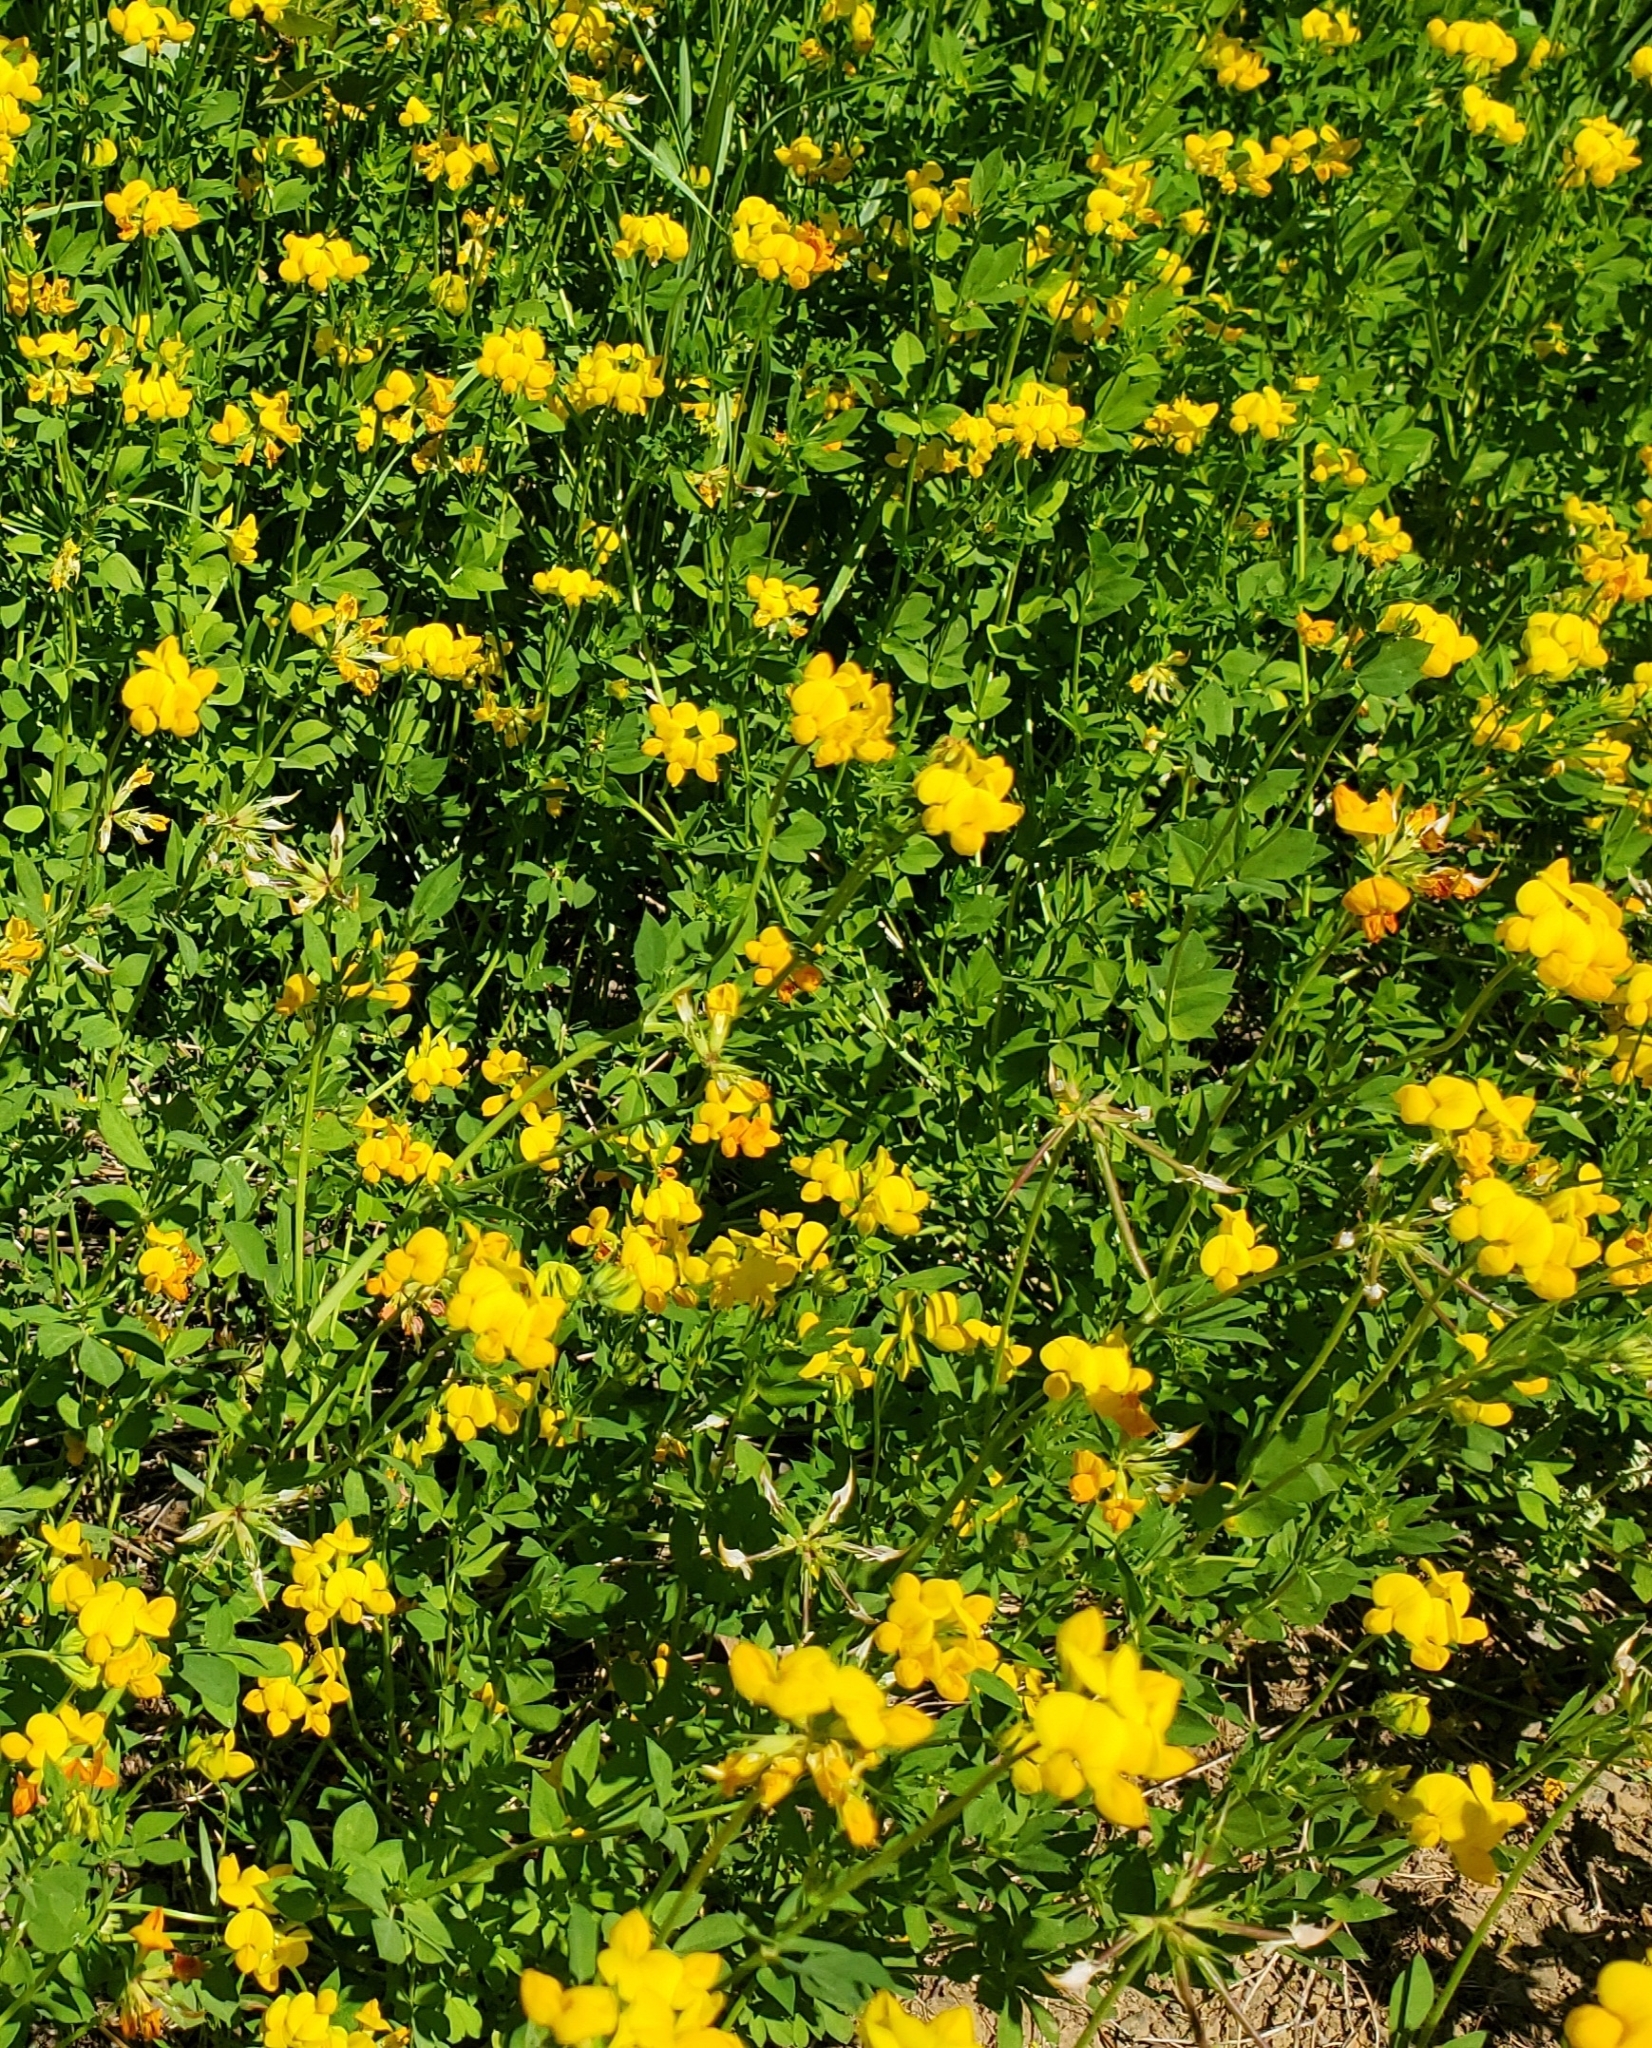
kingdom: Plantae
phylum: Tracheophyta
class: Magnoliopsida
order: Fabales
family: Fabaceae
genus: Lotus
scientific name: Lotus corniculatus
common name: Common bird's-foot-trefoil
